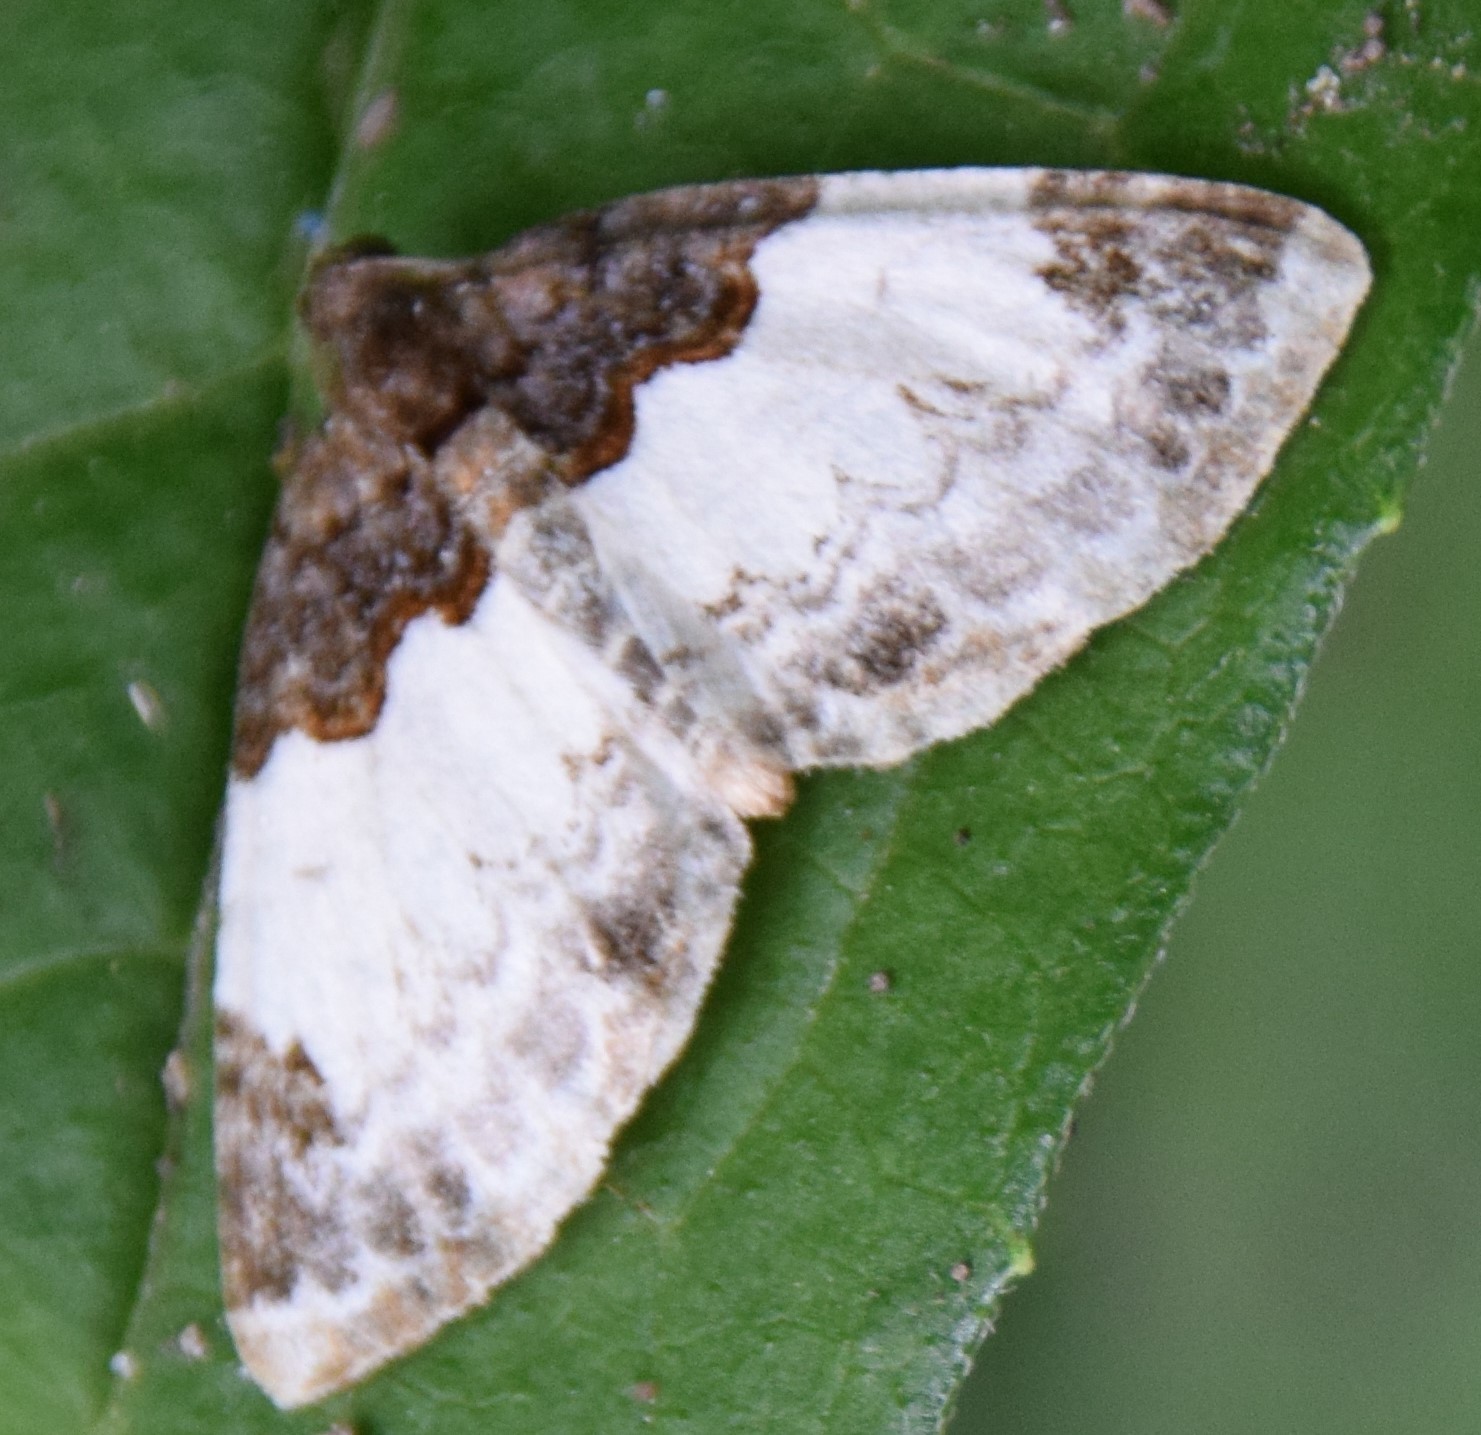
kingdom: Animalia
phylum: Arthropoda
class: Insecta
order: Lepidoptera
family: Geometridae
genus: Mesoleuca
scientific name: Mesoleuca ruficillata
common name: White-ribboned carpet moth
